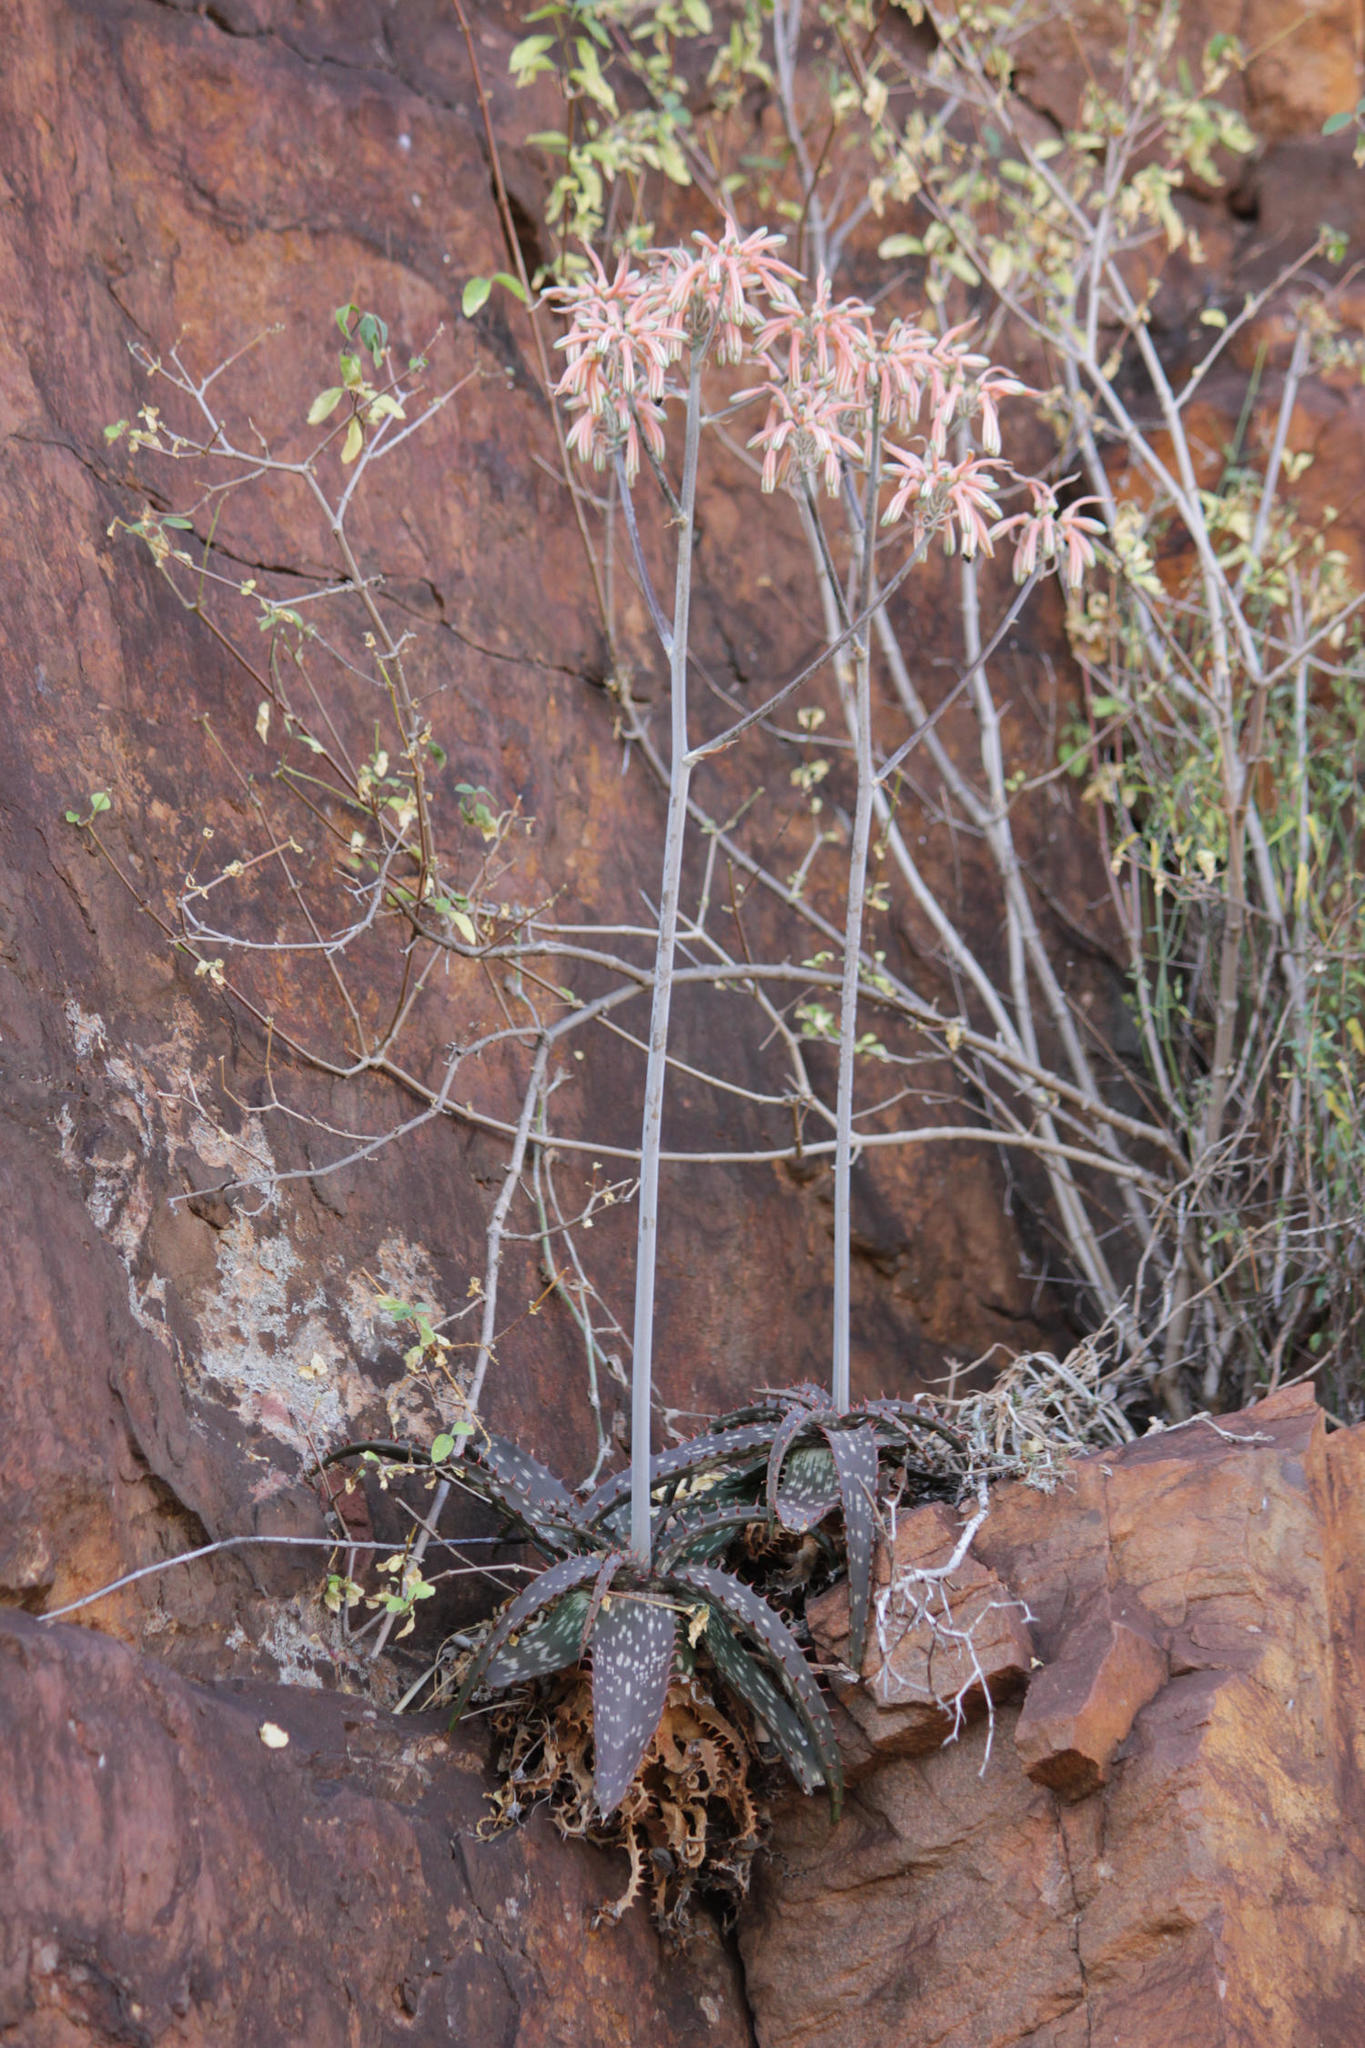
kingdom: Plantae
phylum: Tracheophyta
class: Liliopsida
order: Asparagales
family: Asphodelaceae
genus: Aloe
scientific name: Aloe greatheadii
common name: Greathead's aloe
